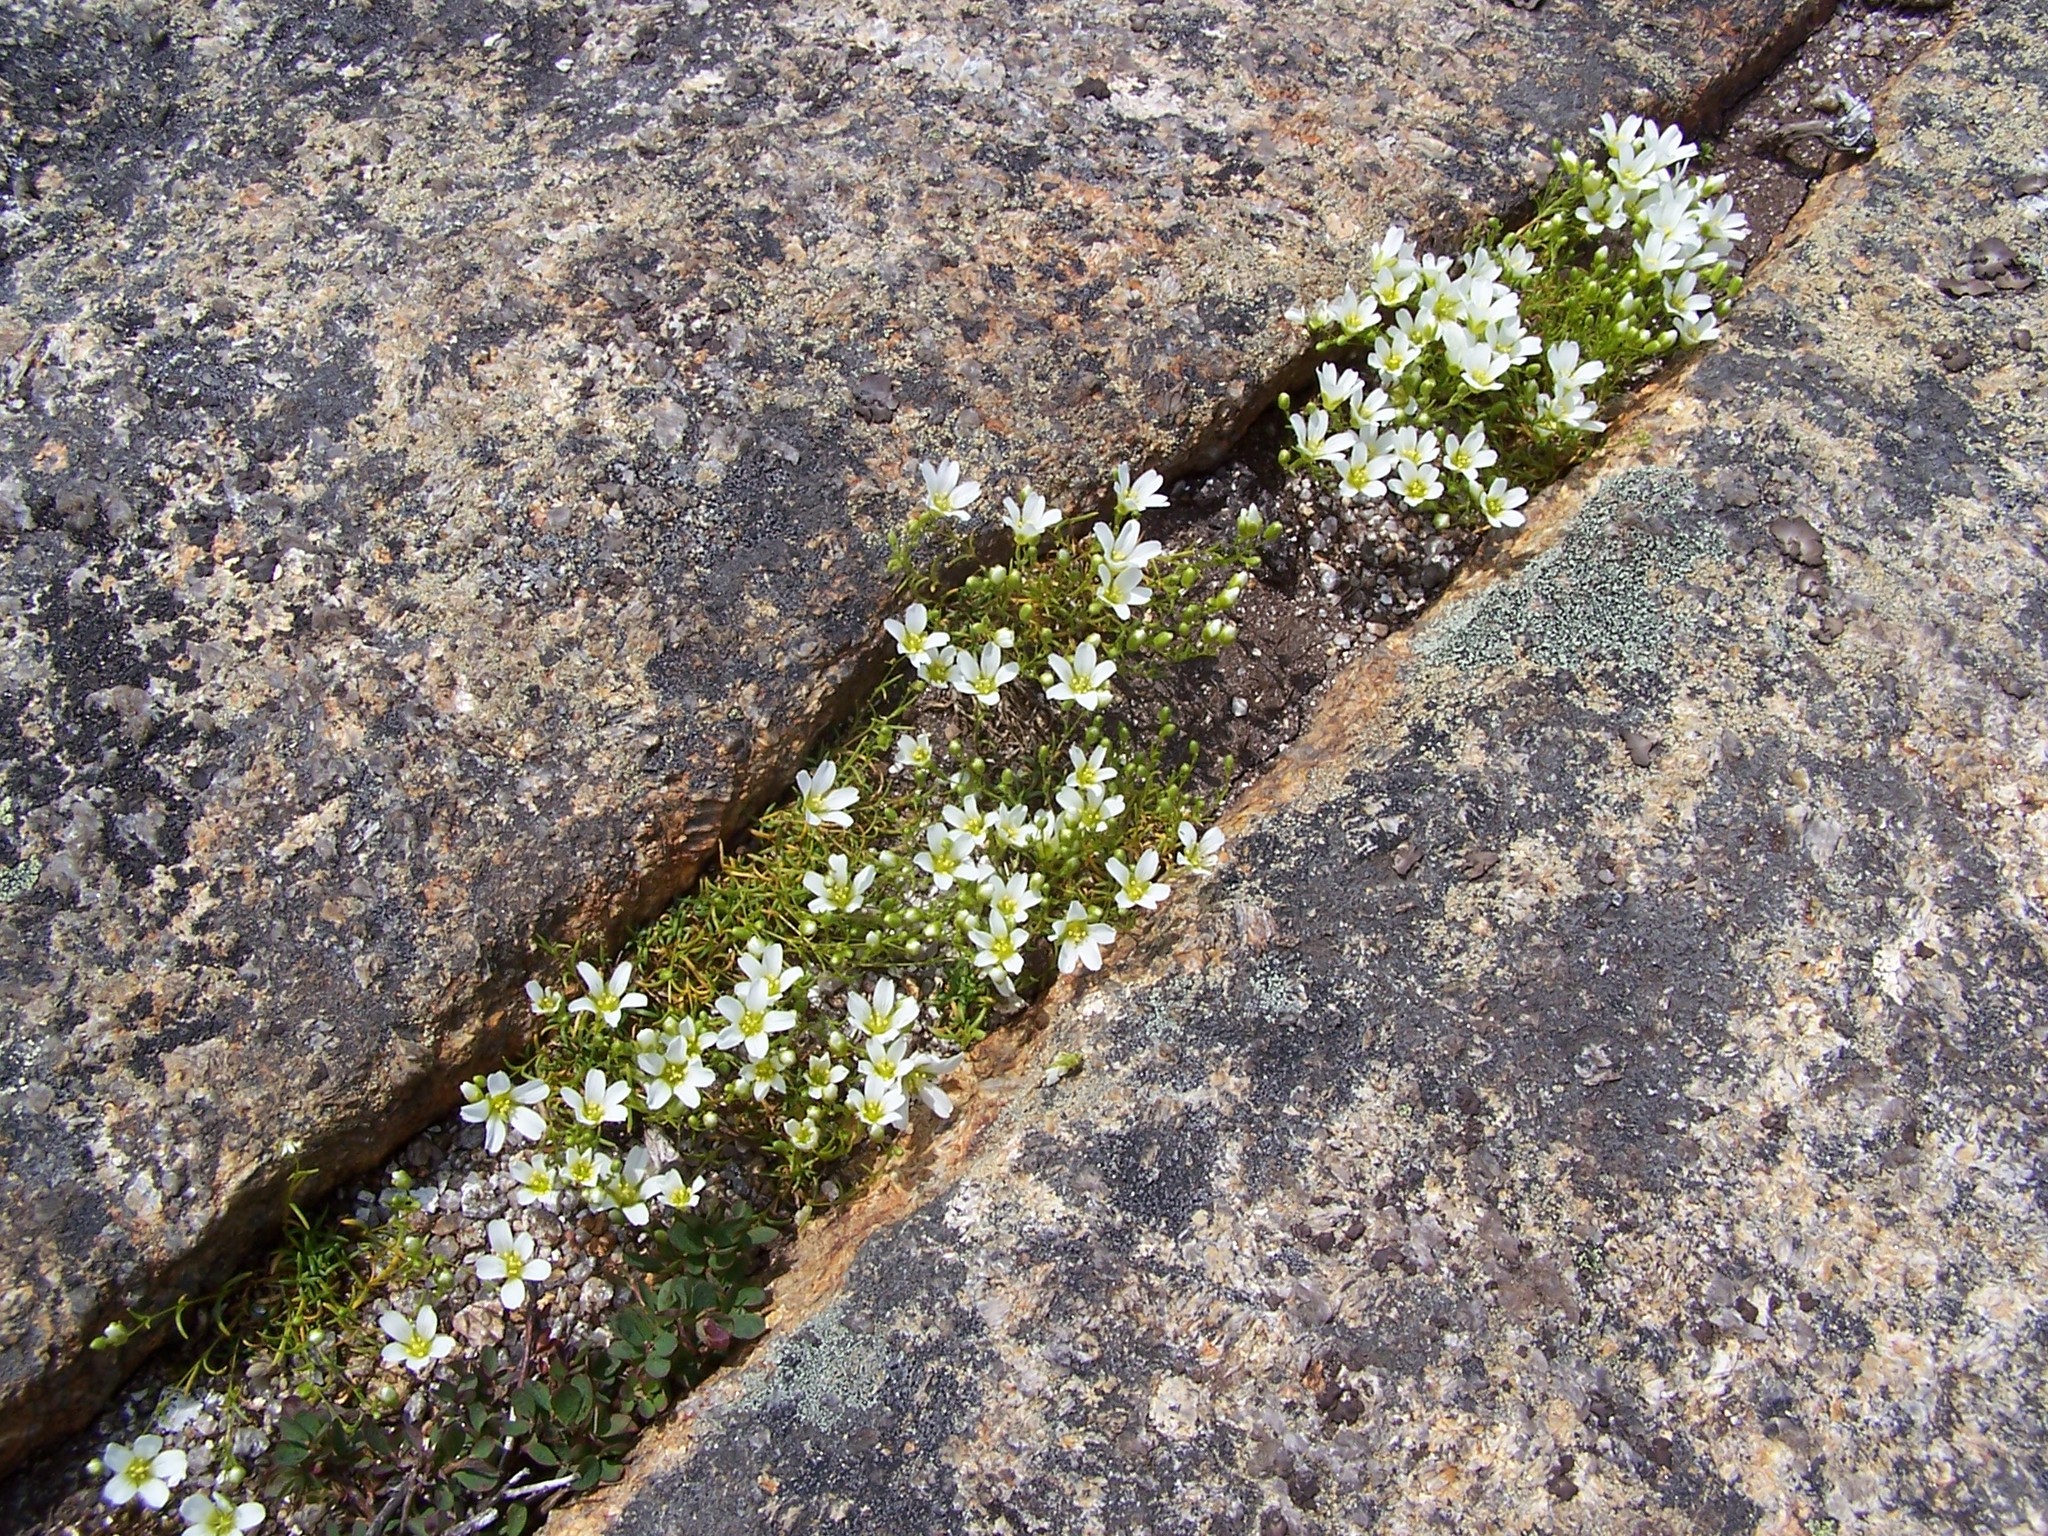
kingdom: Plantae
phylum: Tracheophyta
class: Magnoliopsida
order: Caryophyllales
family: Caryophyllaceae
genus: Geocarpon
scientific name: Geocarpon groenlandicum
